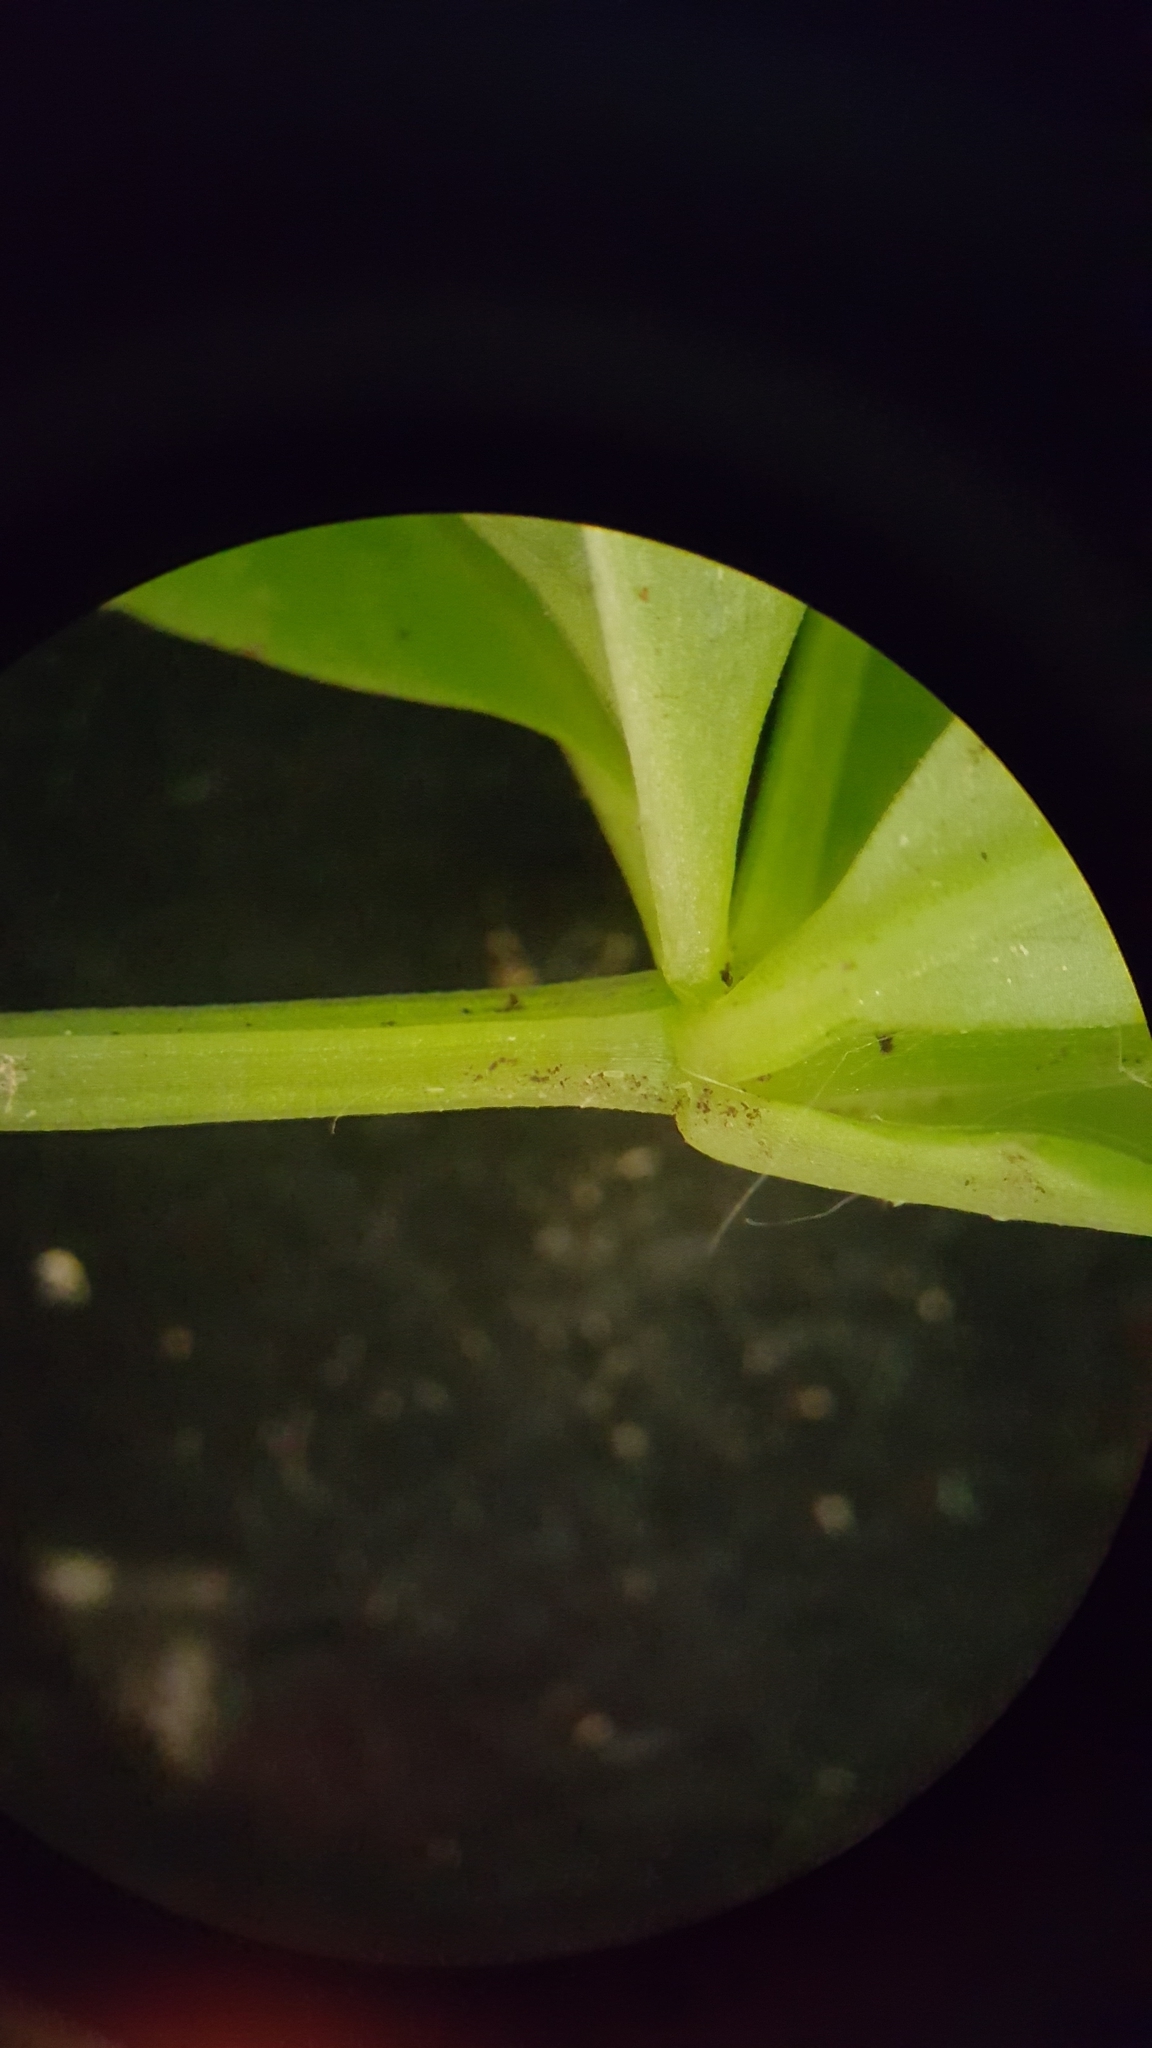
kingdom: Plantae
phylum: Tracheophyta
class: Magnoliopsida
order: Gentianales
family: Rubiaceae
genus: Galium
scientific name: Galium triflorum
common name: Fragrant bedstraw
